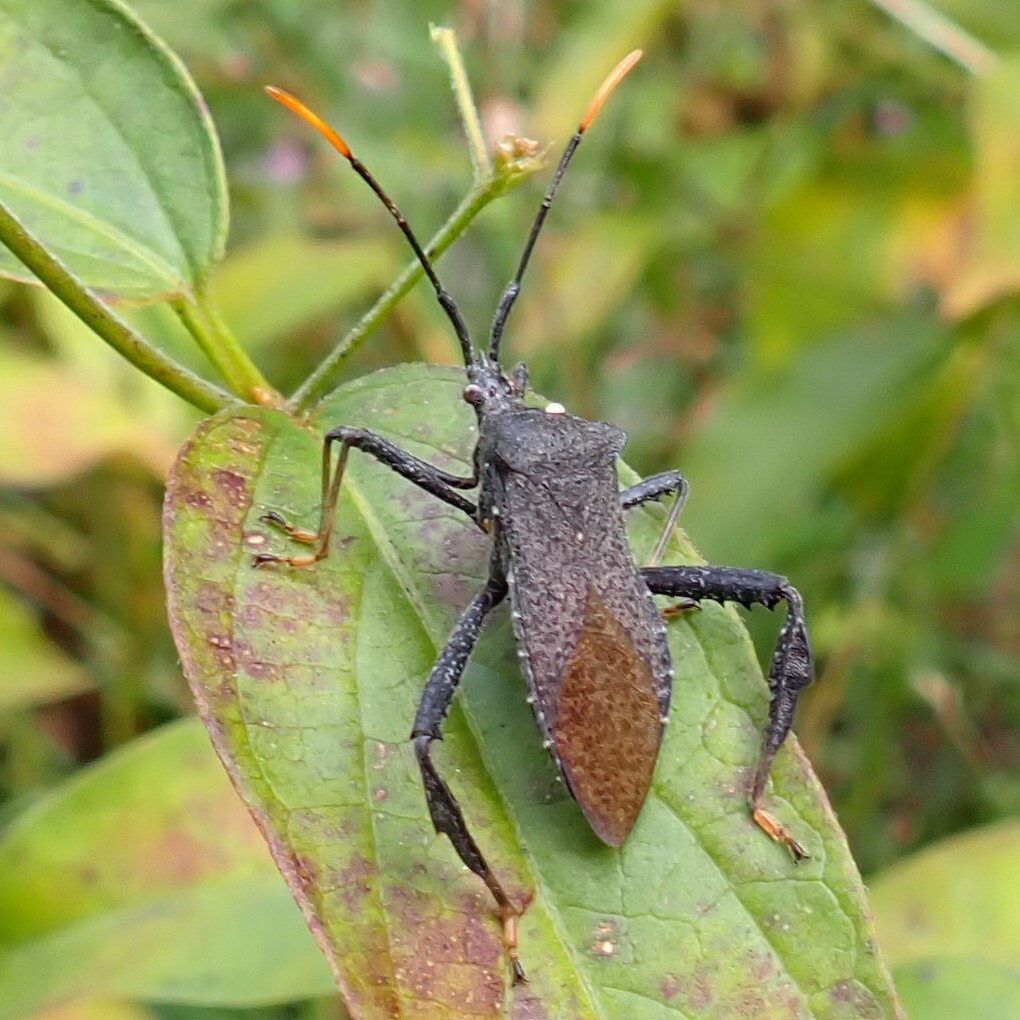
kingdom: Animalia
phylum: Arthropoda
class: Insecta
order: Hemiptera
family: Coreidae
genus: Acanthocephala
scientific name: Acanthocephala terminalis
